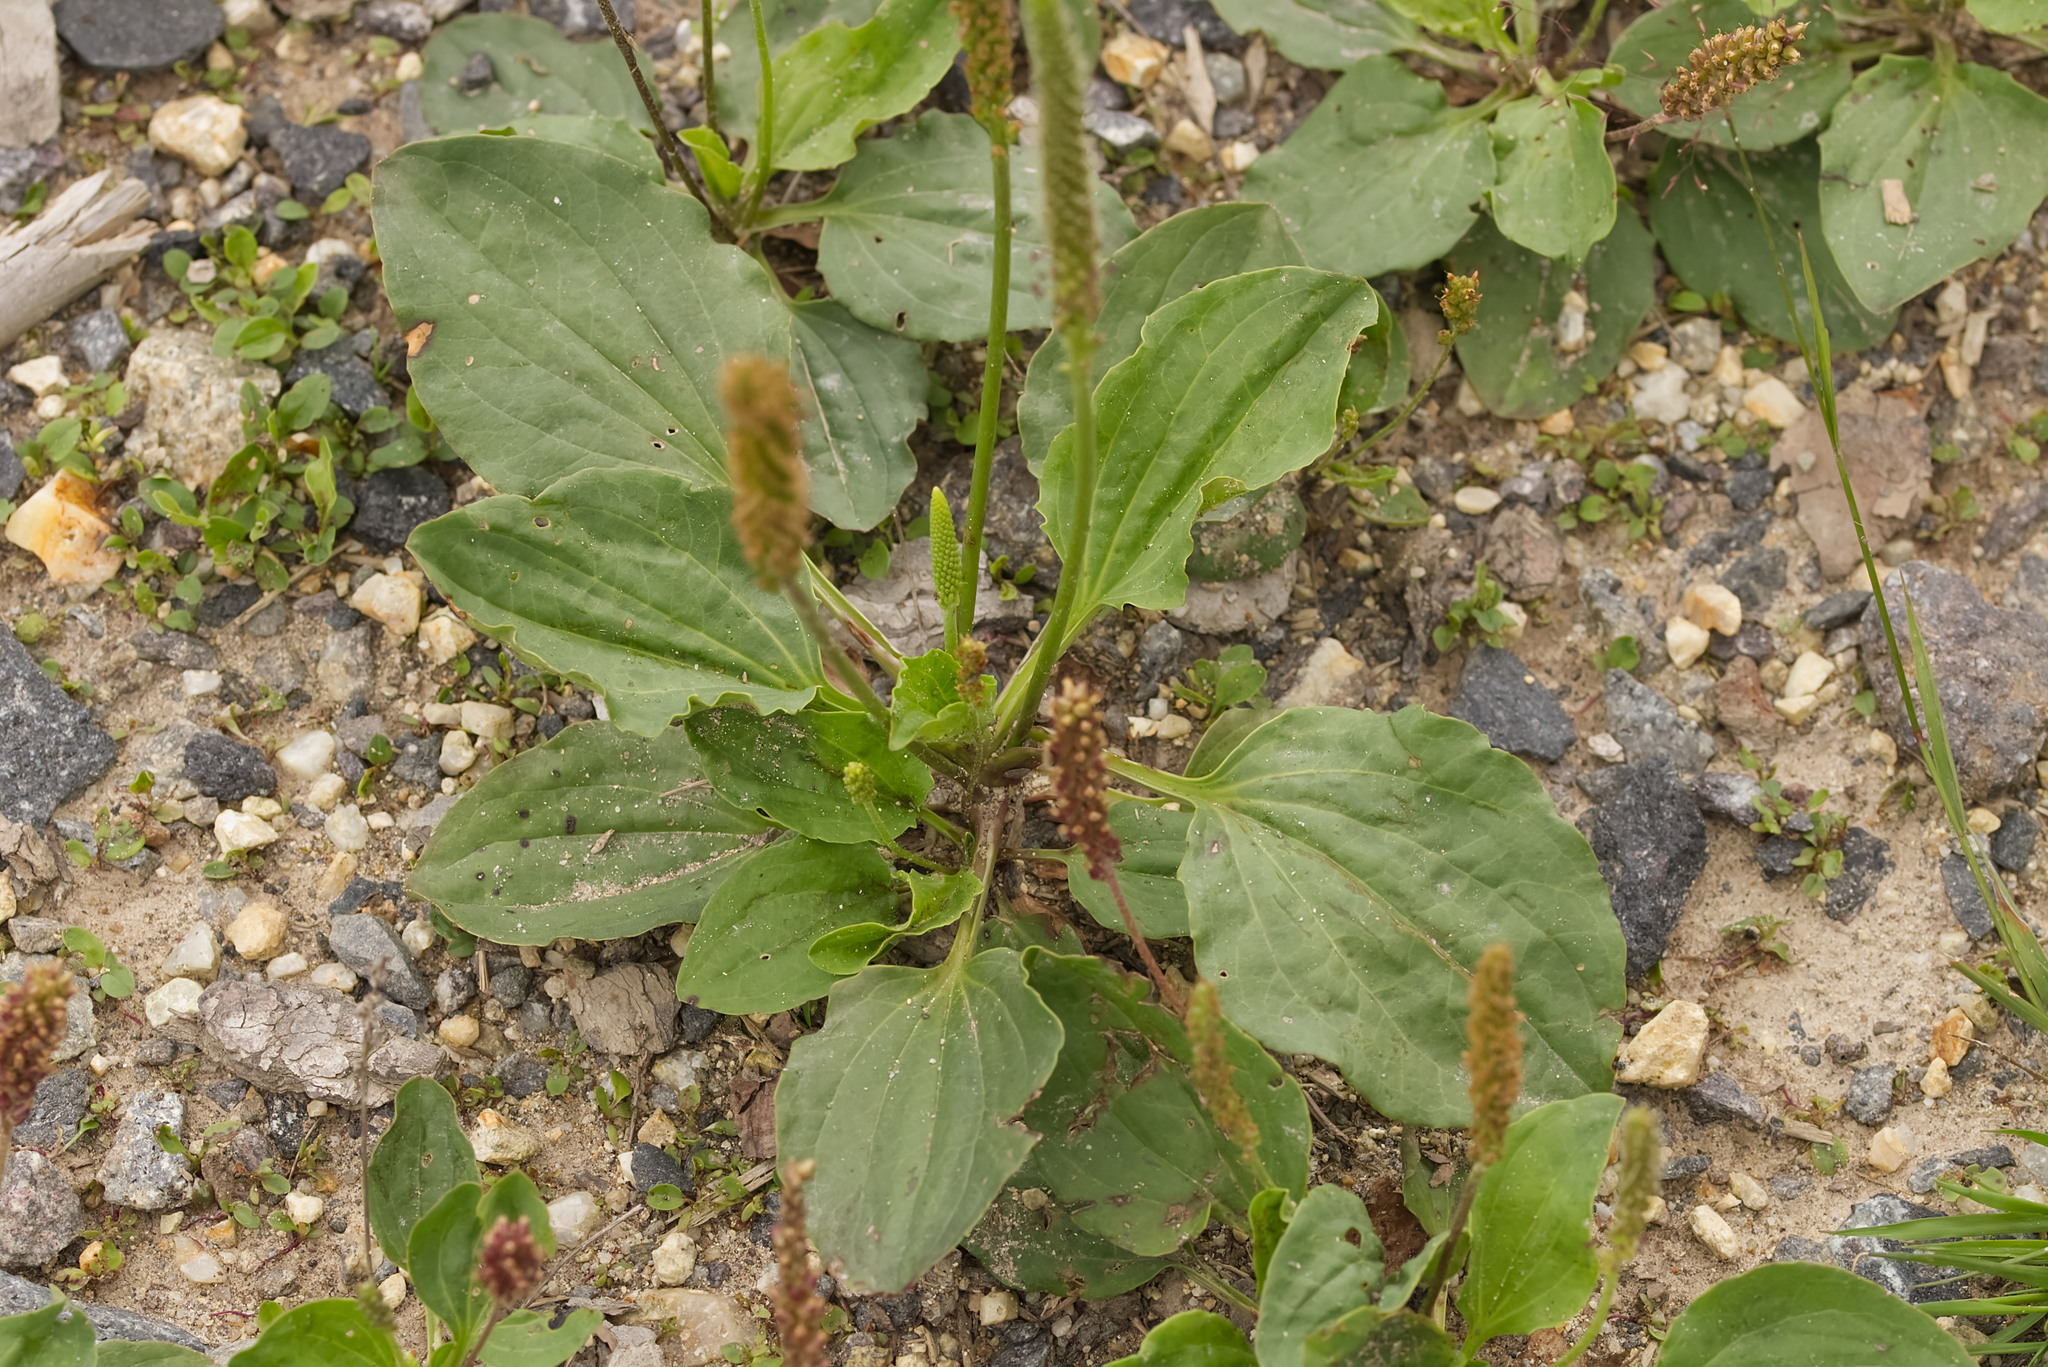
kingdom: Plantae
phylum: Tracheophyta
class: Magnoliopsida
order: Lamiales
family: Plantaginaceae
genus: Plantago
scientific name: Plantago major
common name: Common plantain
